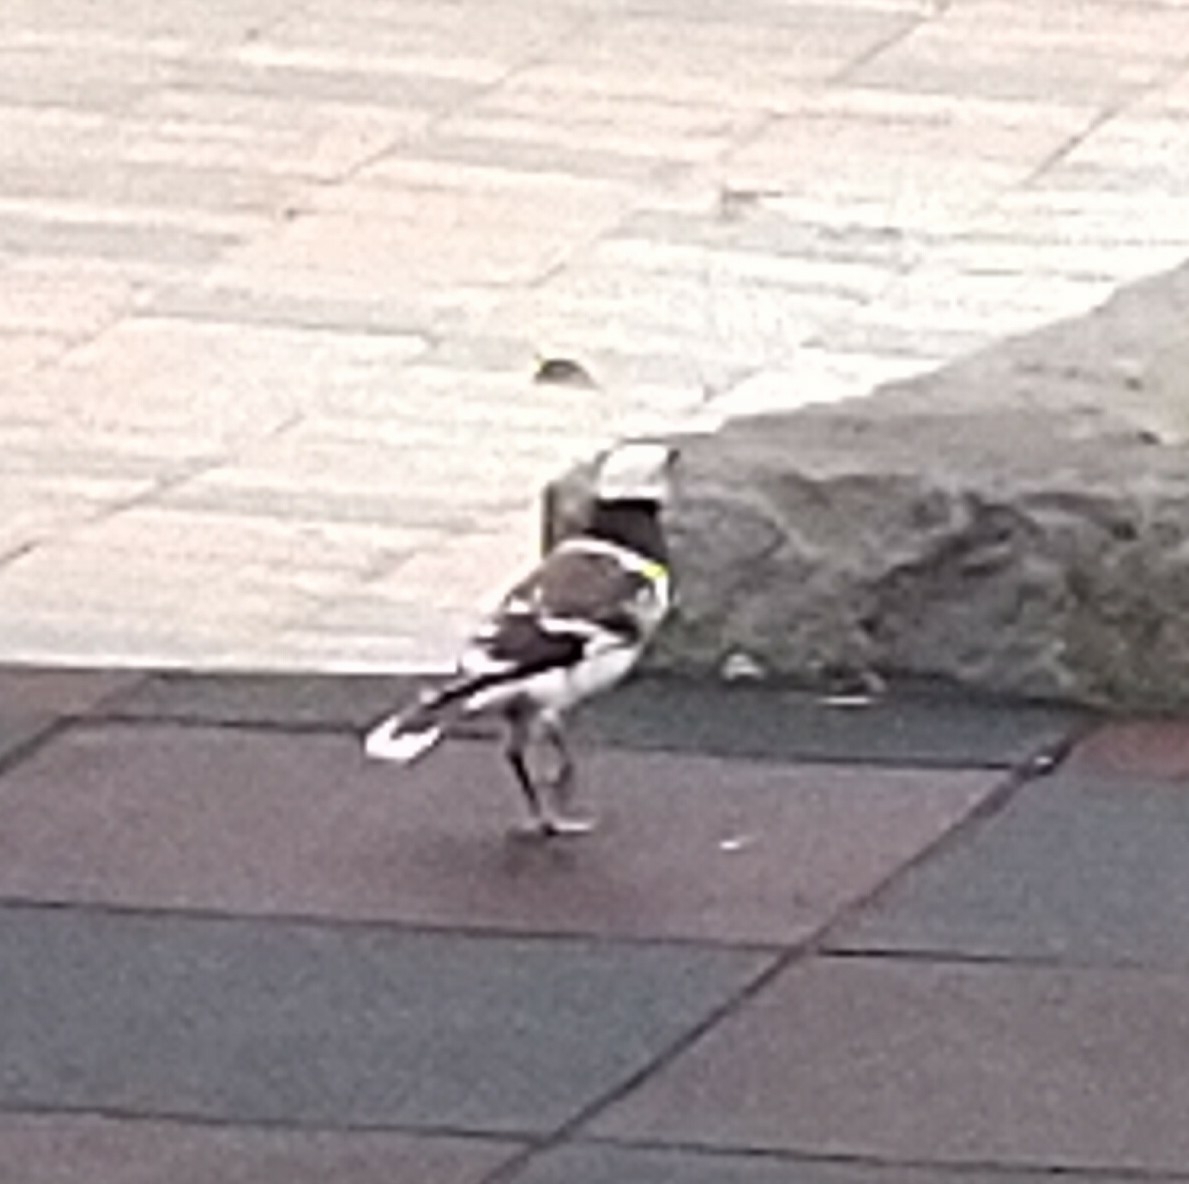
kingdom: Animalia
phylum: Chordata
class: Aves
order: Passeriformes
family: Sturnidae
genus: Gracupica
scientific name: Gracupica nigricollis
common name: Black-collared starling
